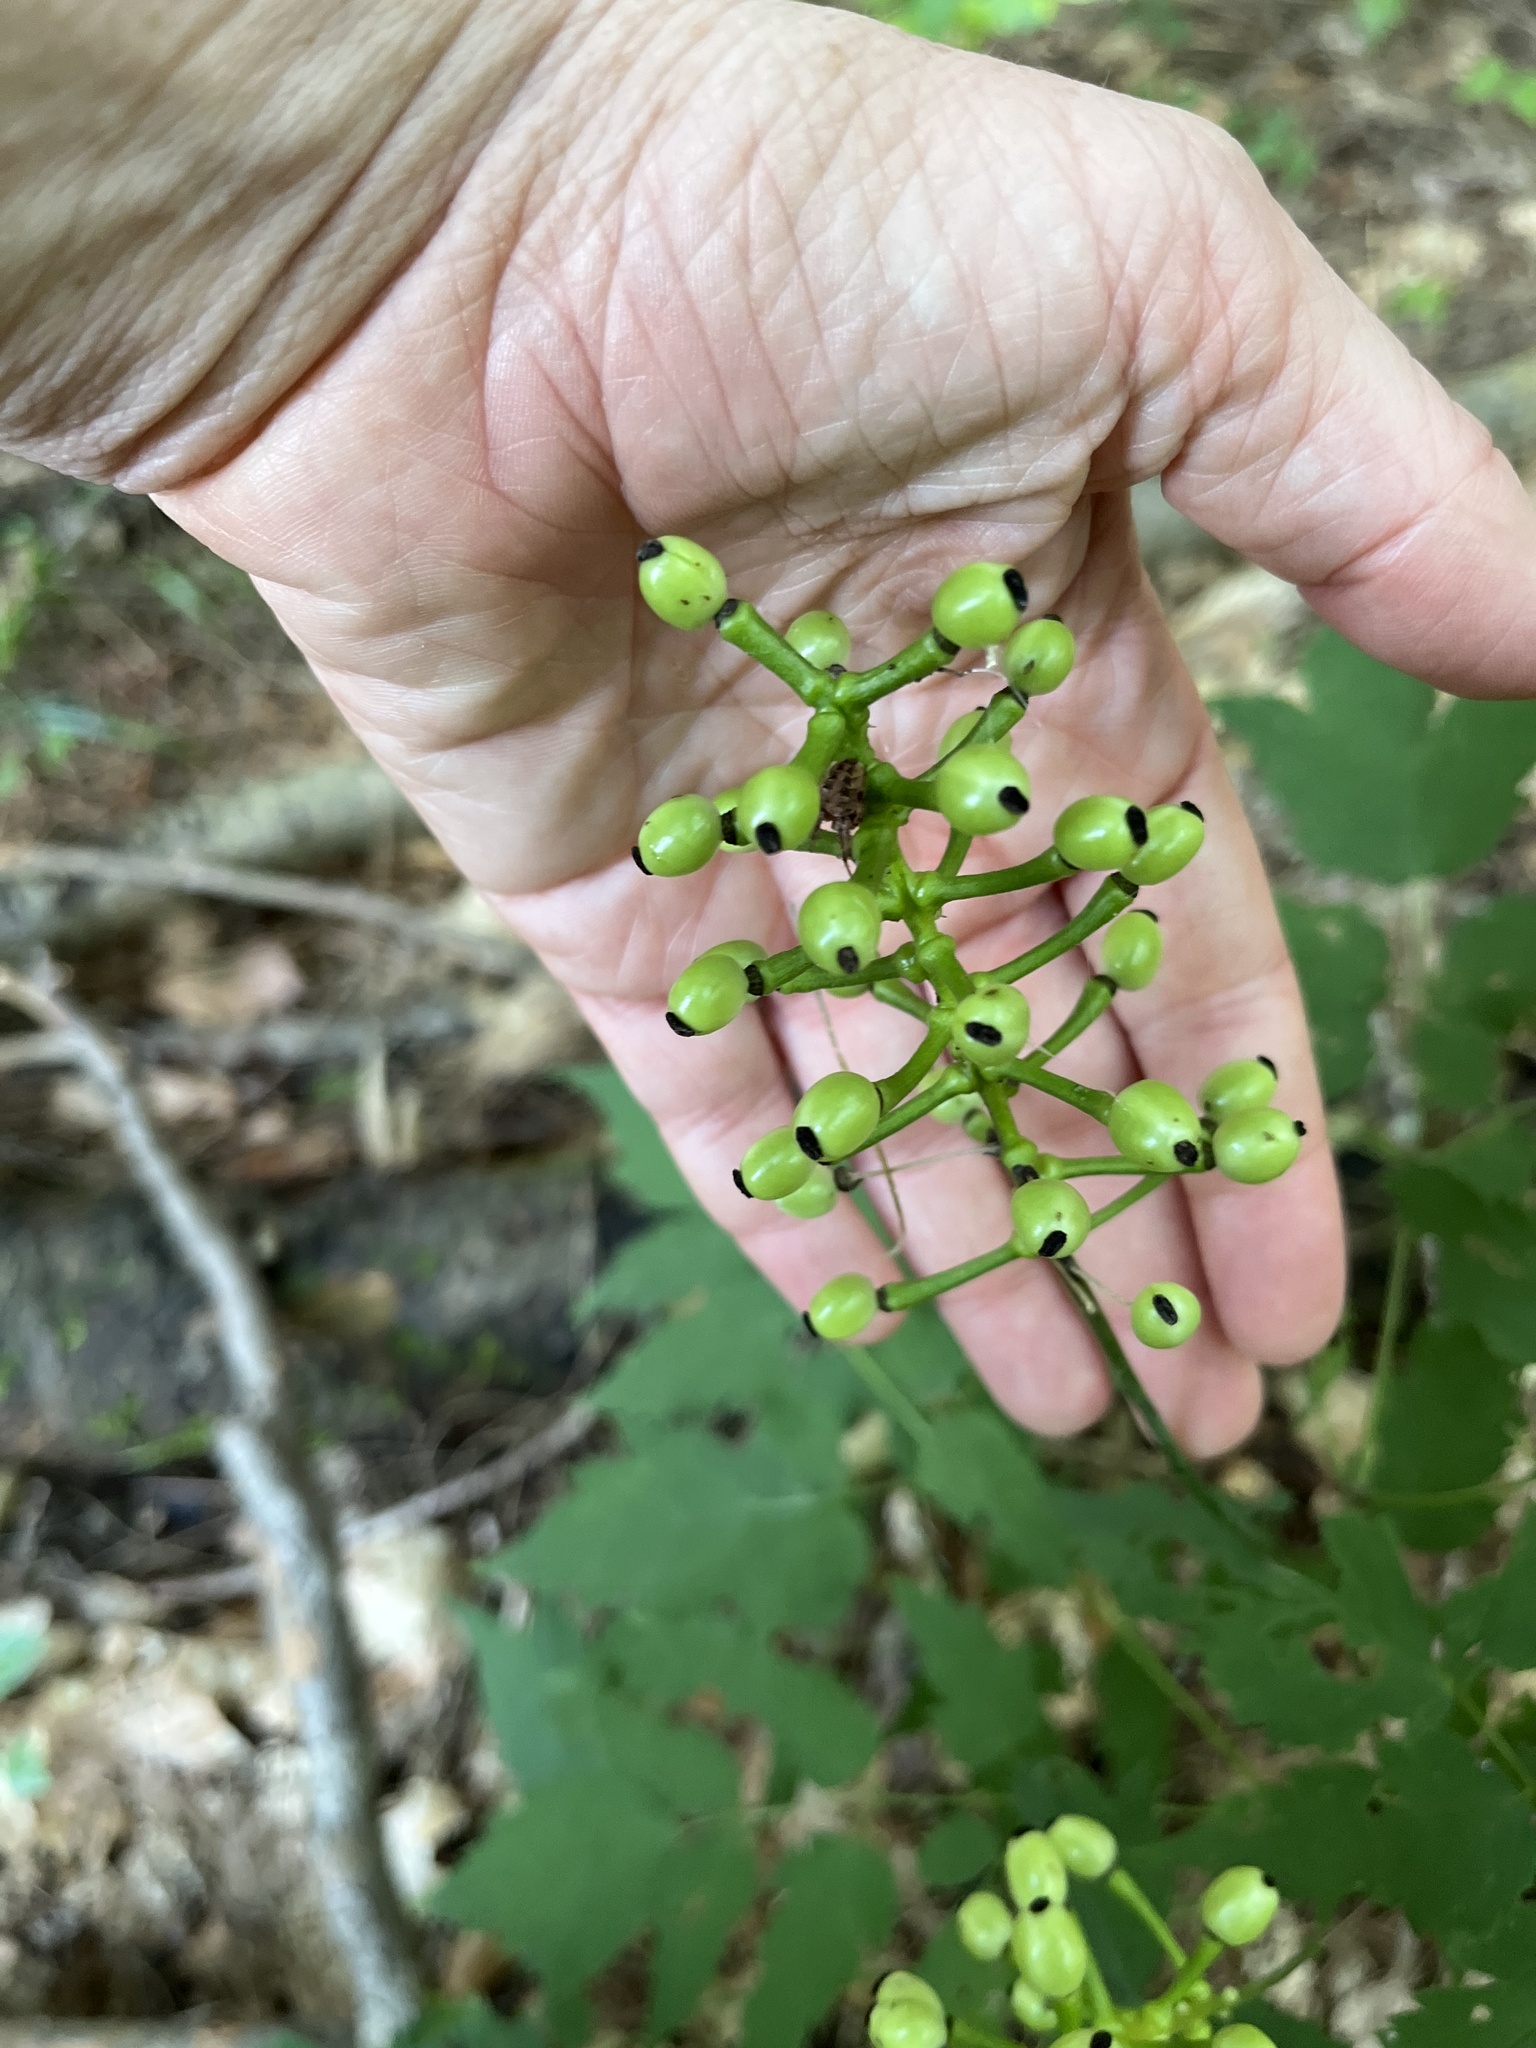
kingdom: Plantae
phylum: Tracheophyta
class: Magnoliopsida
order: Ranunculales
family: Ranunculaceae
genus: Actaea
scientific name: Actaea pachypoda
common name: Doll's-eyes
